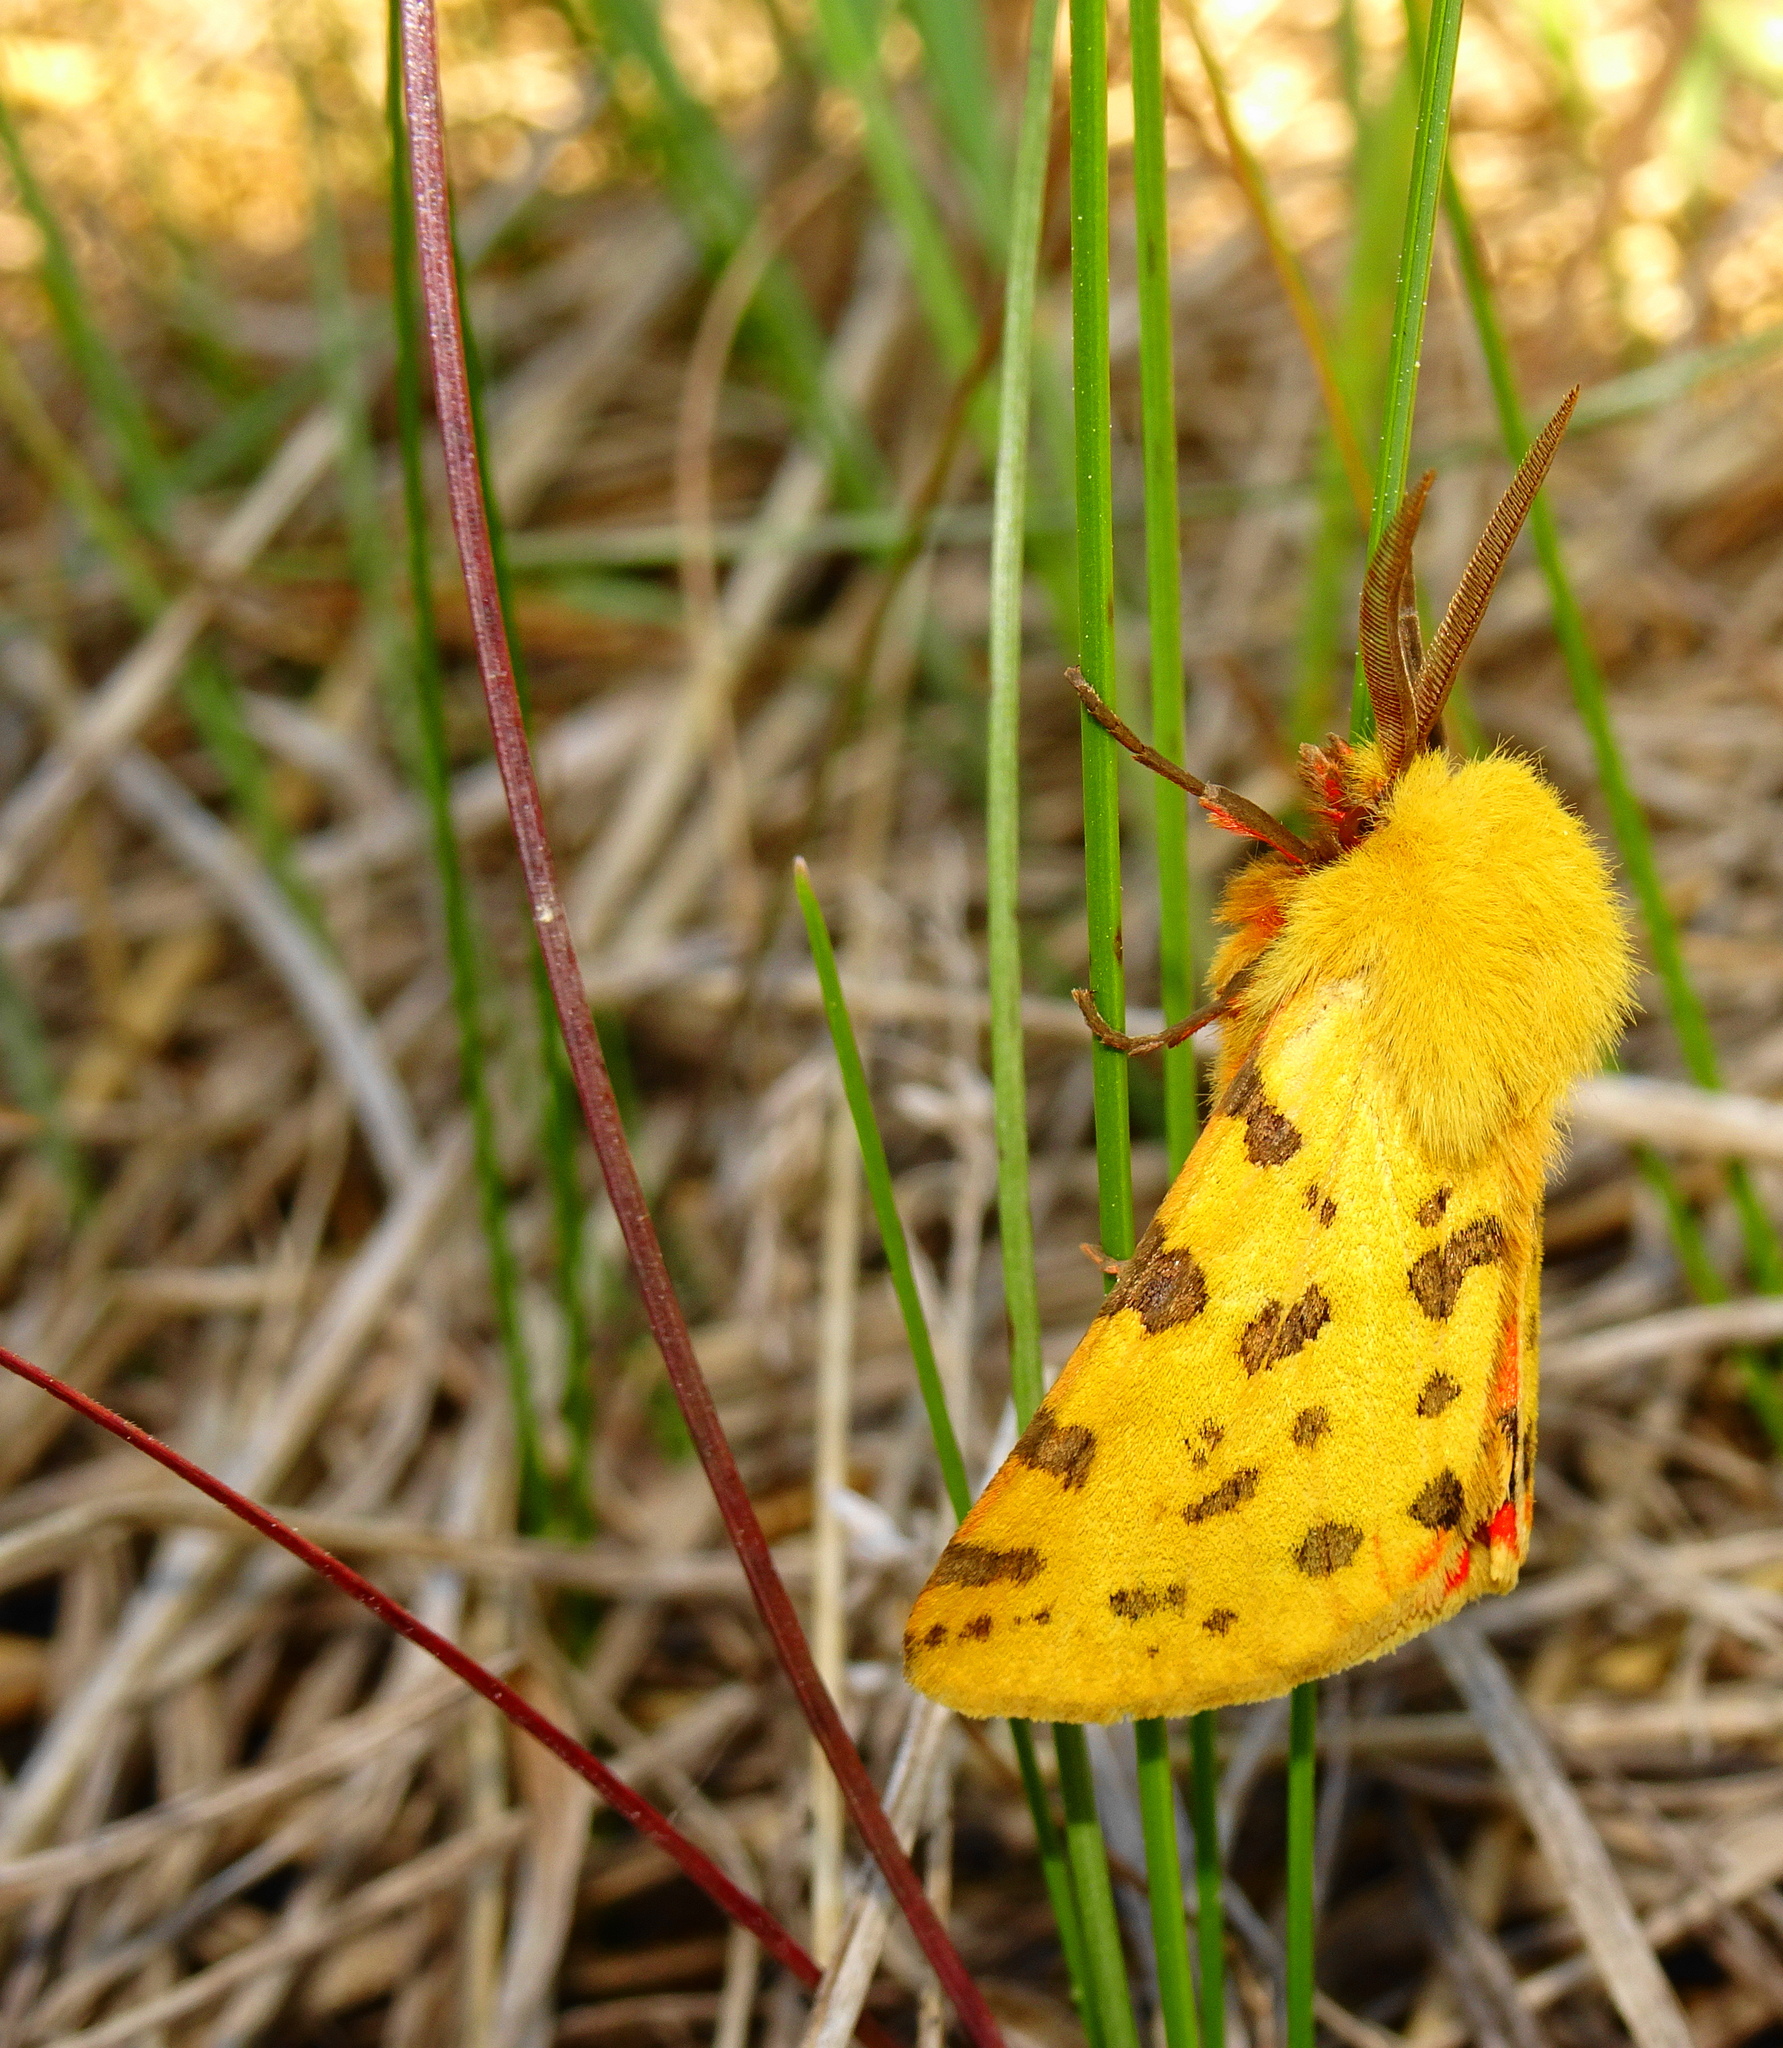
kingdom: Animalia
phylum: Arthropoda
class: Insecta
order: Lepidoptera
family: Erebidae
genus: Rhyparia
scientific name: Rhyparia purpurata
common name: Purple tiger
